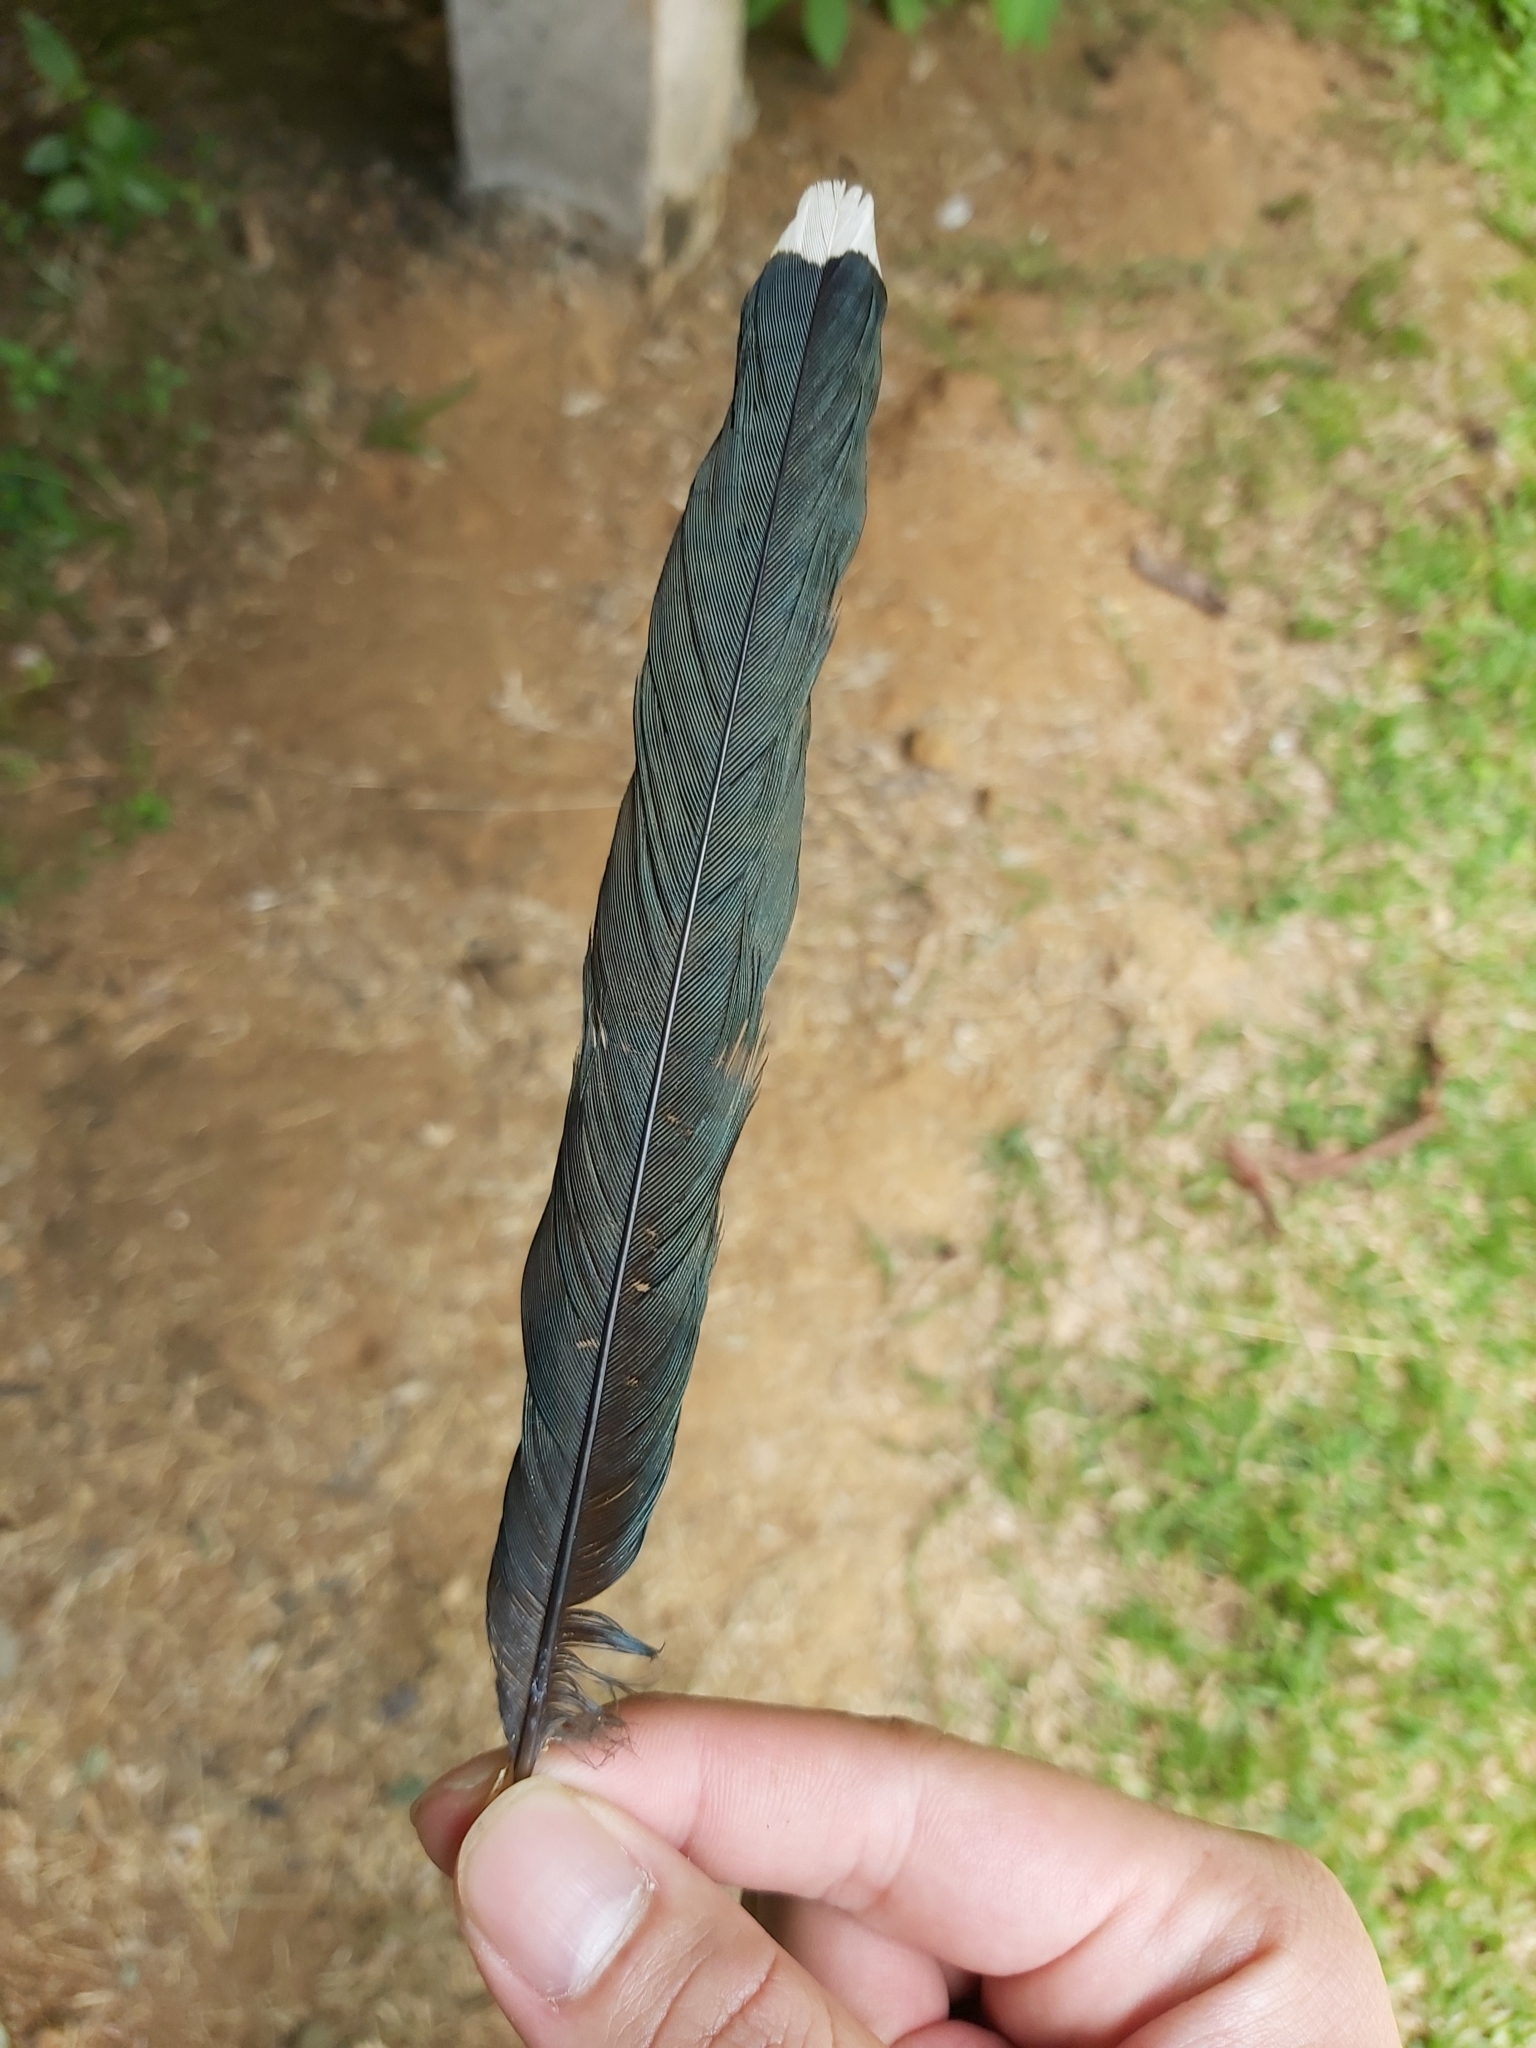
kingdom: Animalia
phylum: Chordata
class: Aves
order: Cuculiformes
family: Cuculidae
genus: Phaenicophaeus
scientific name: Phaenicophaeus
